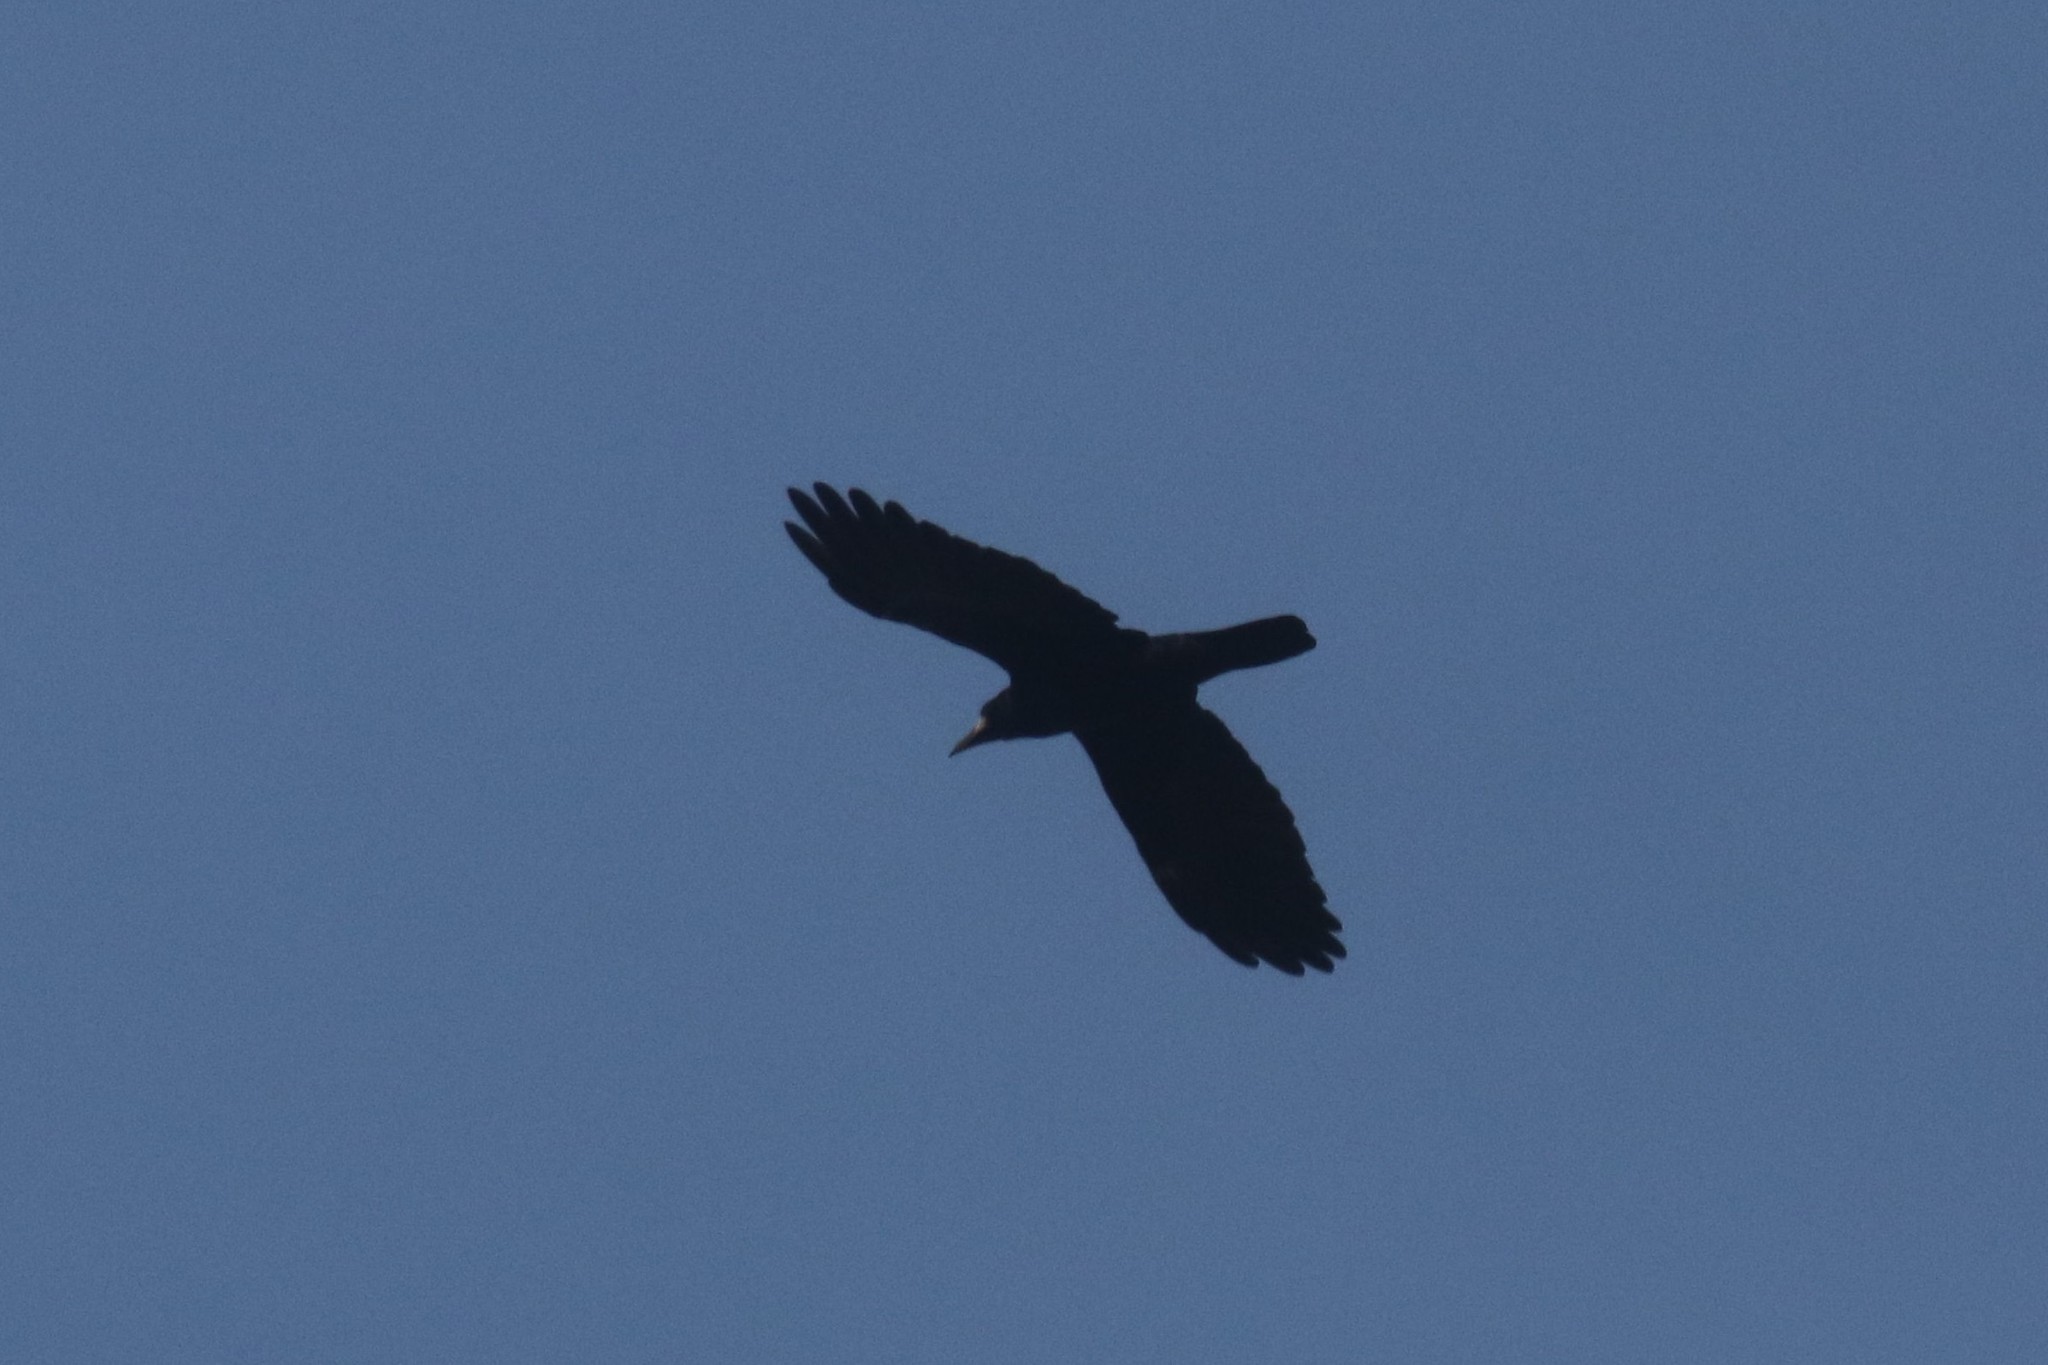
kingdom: Animalia
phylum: Chordata
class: Aves
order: Passeriformes
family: Corvidae
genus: Corvus
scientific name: Corvus frugilegus
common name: Rook
